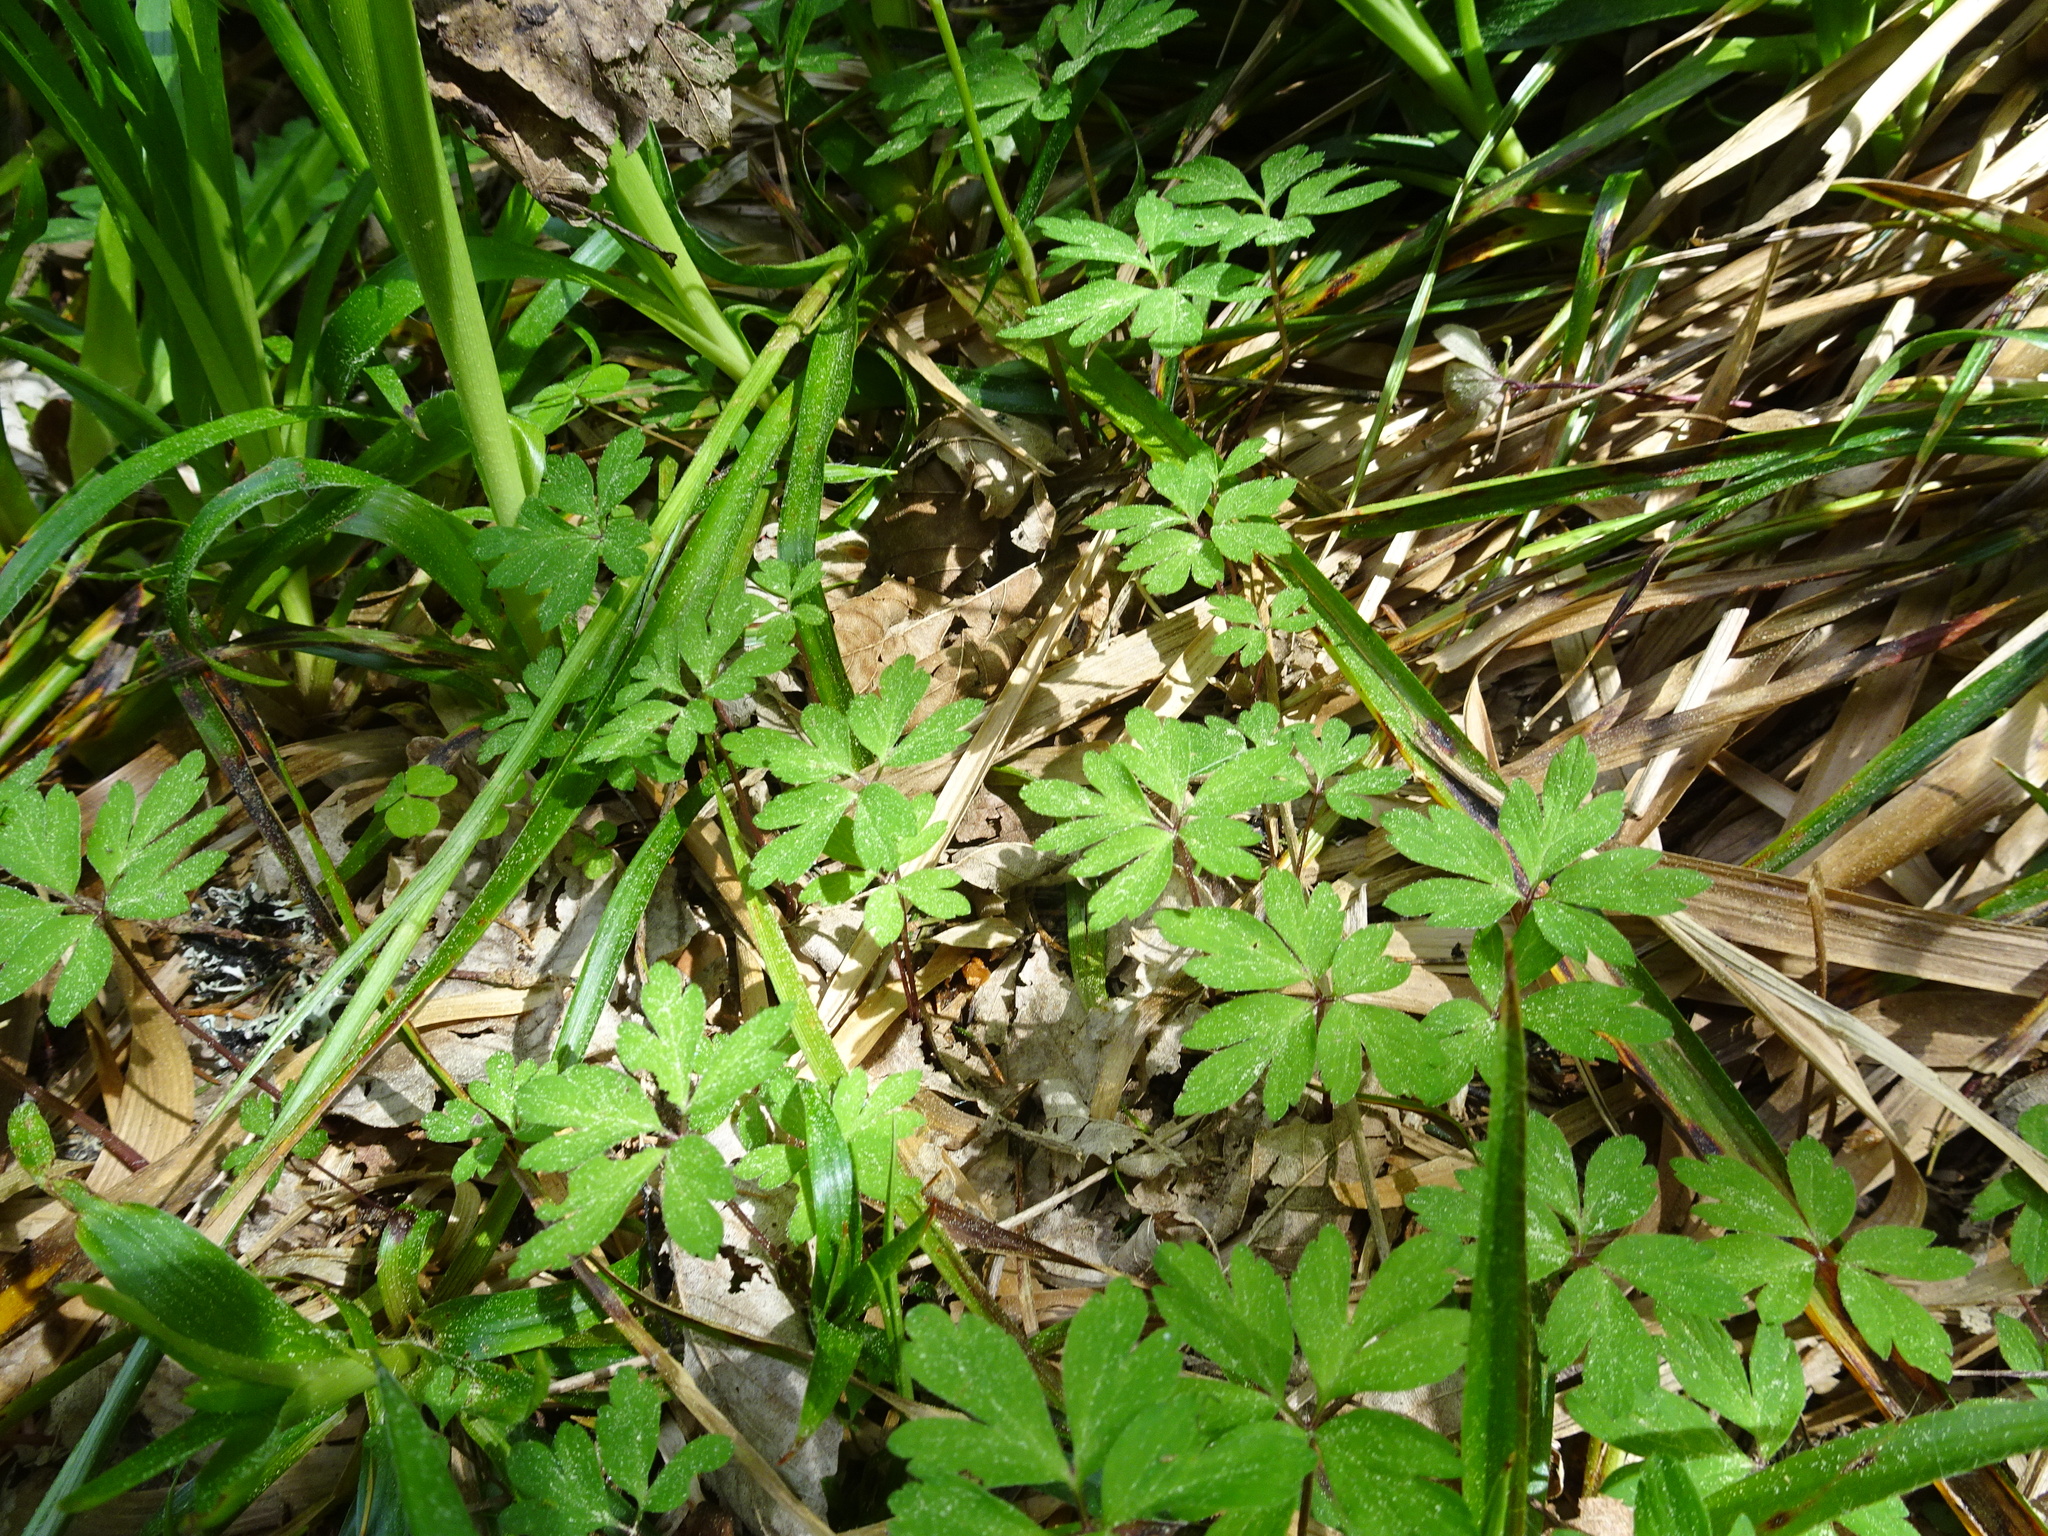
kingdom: Plantae
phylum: Tracheophyta
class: Magnoliopsida
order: Ranunculales
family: Ranunculaceae
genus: Anemone
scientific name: Anemone nemorosa
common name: Wood anemone
